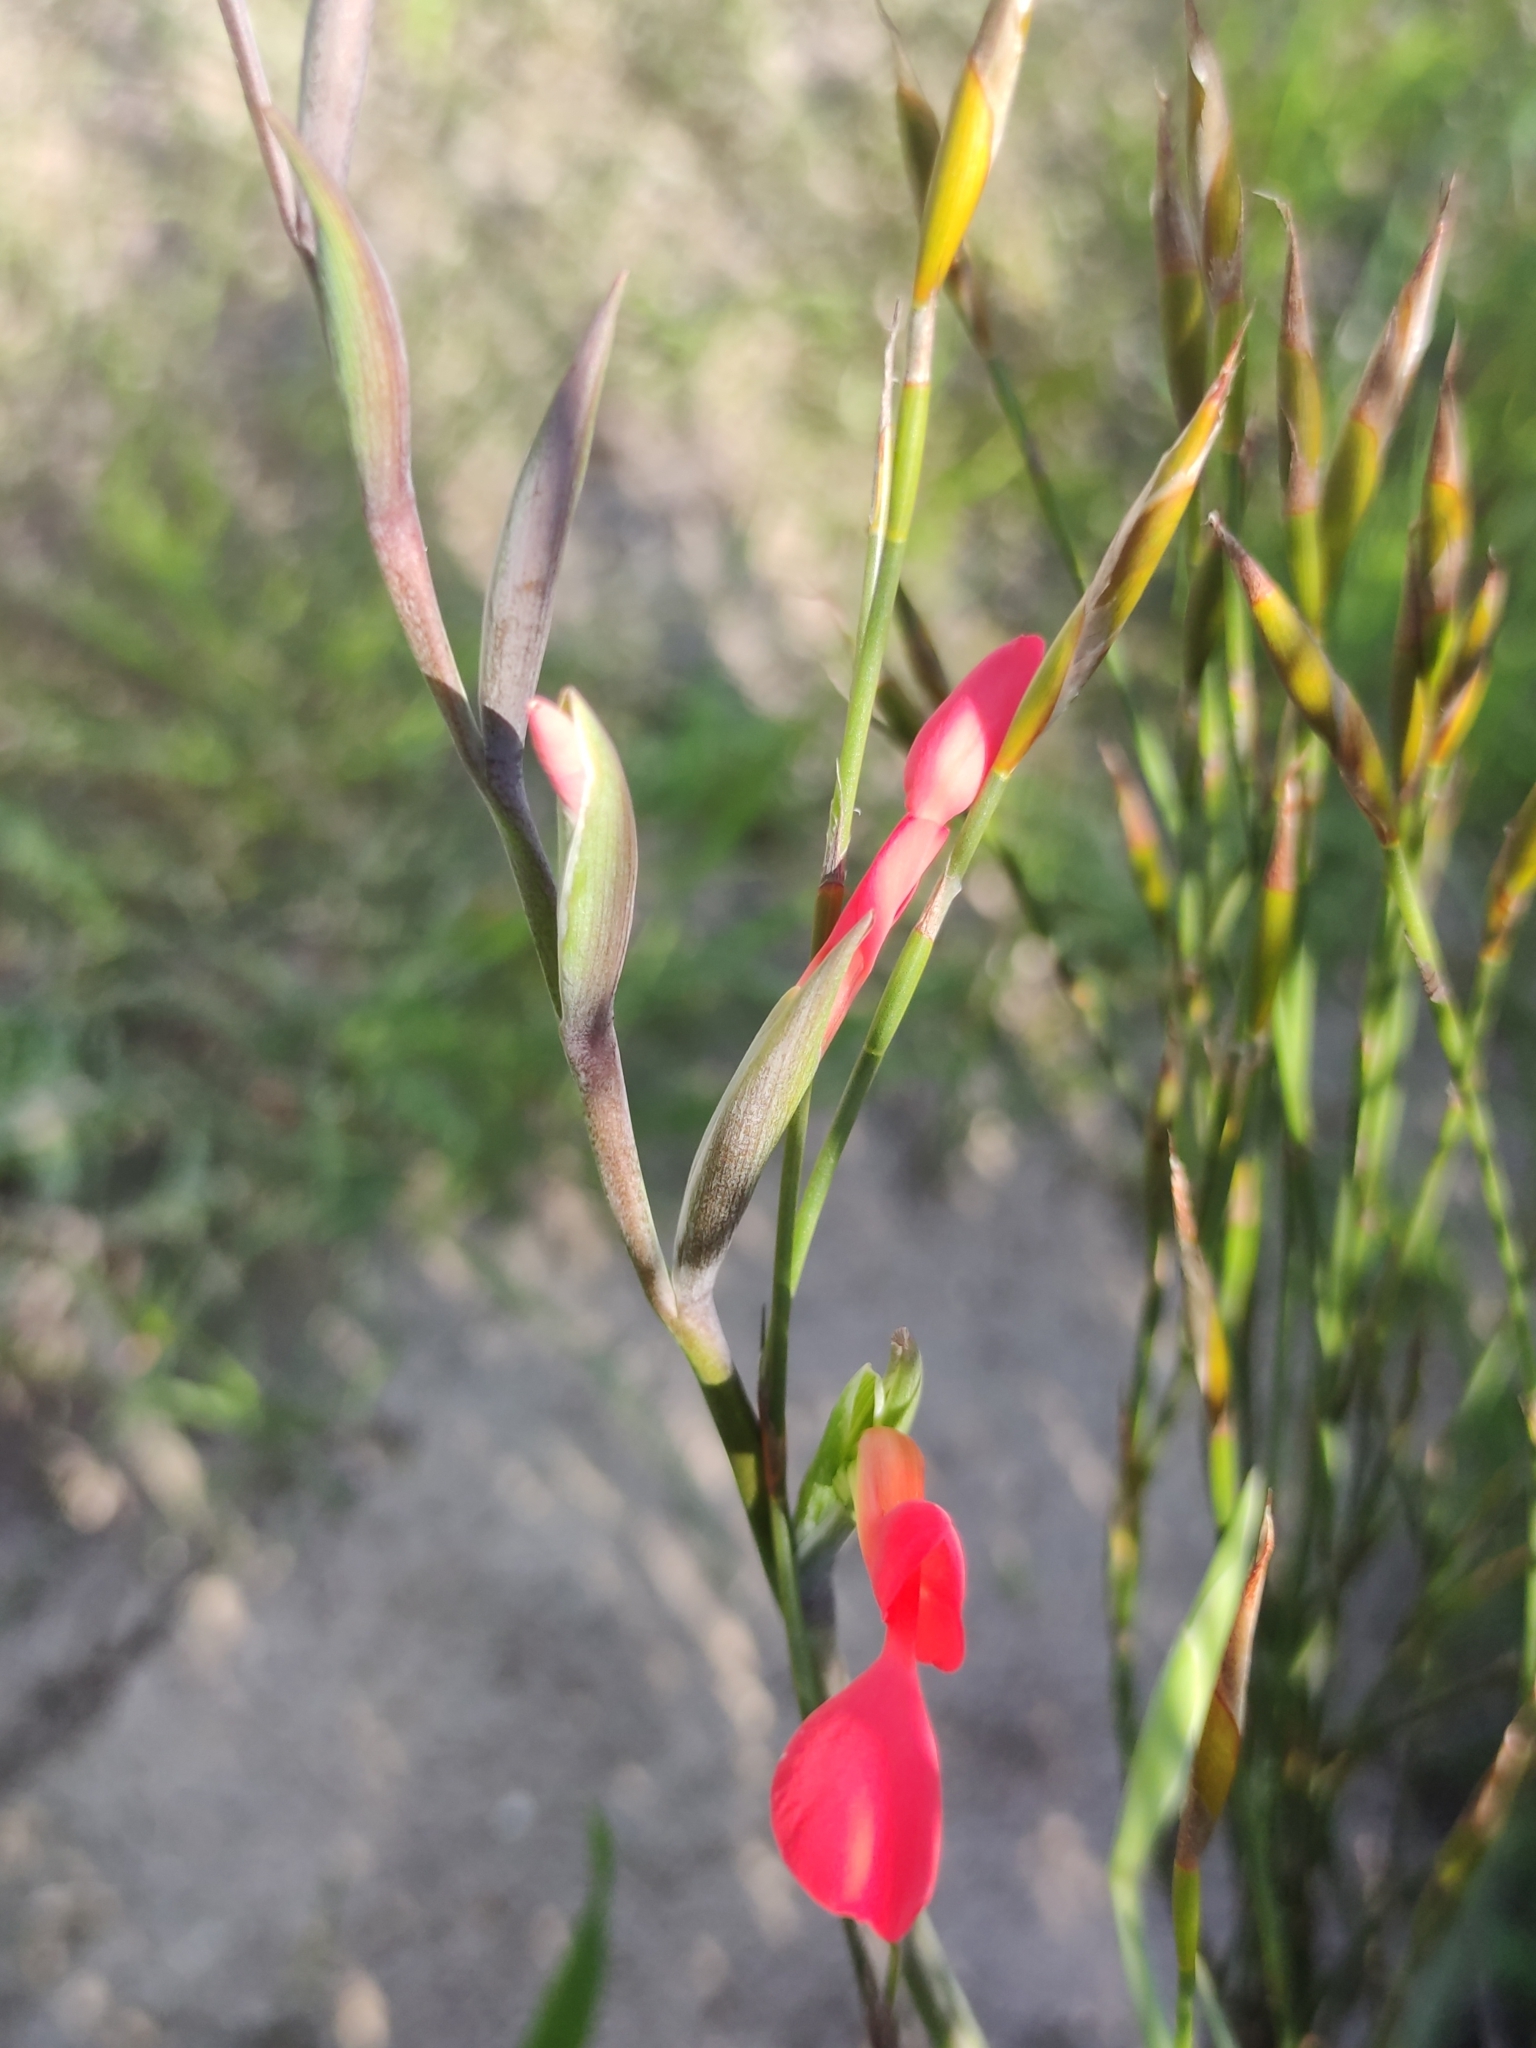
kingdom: Plantae
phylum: Tracheophyta
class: Liliopsida
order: Asparagales
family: Iridaceae
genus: Gladiolus
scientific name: Gladiolus cunonius
